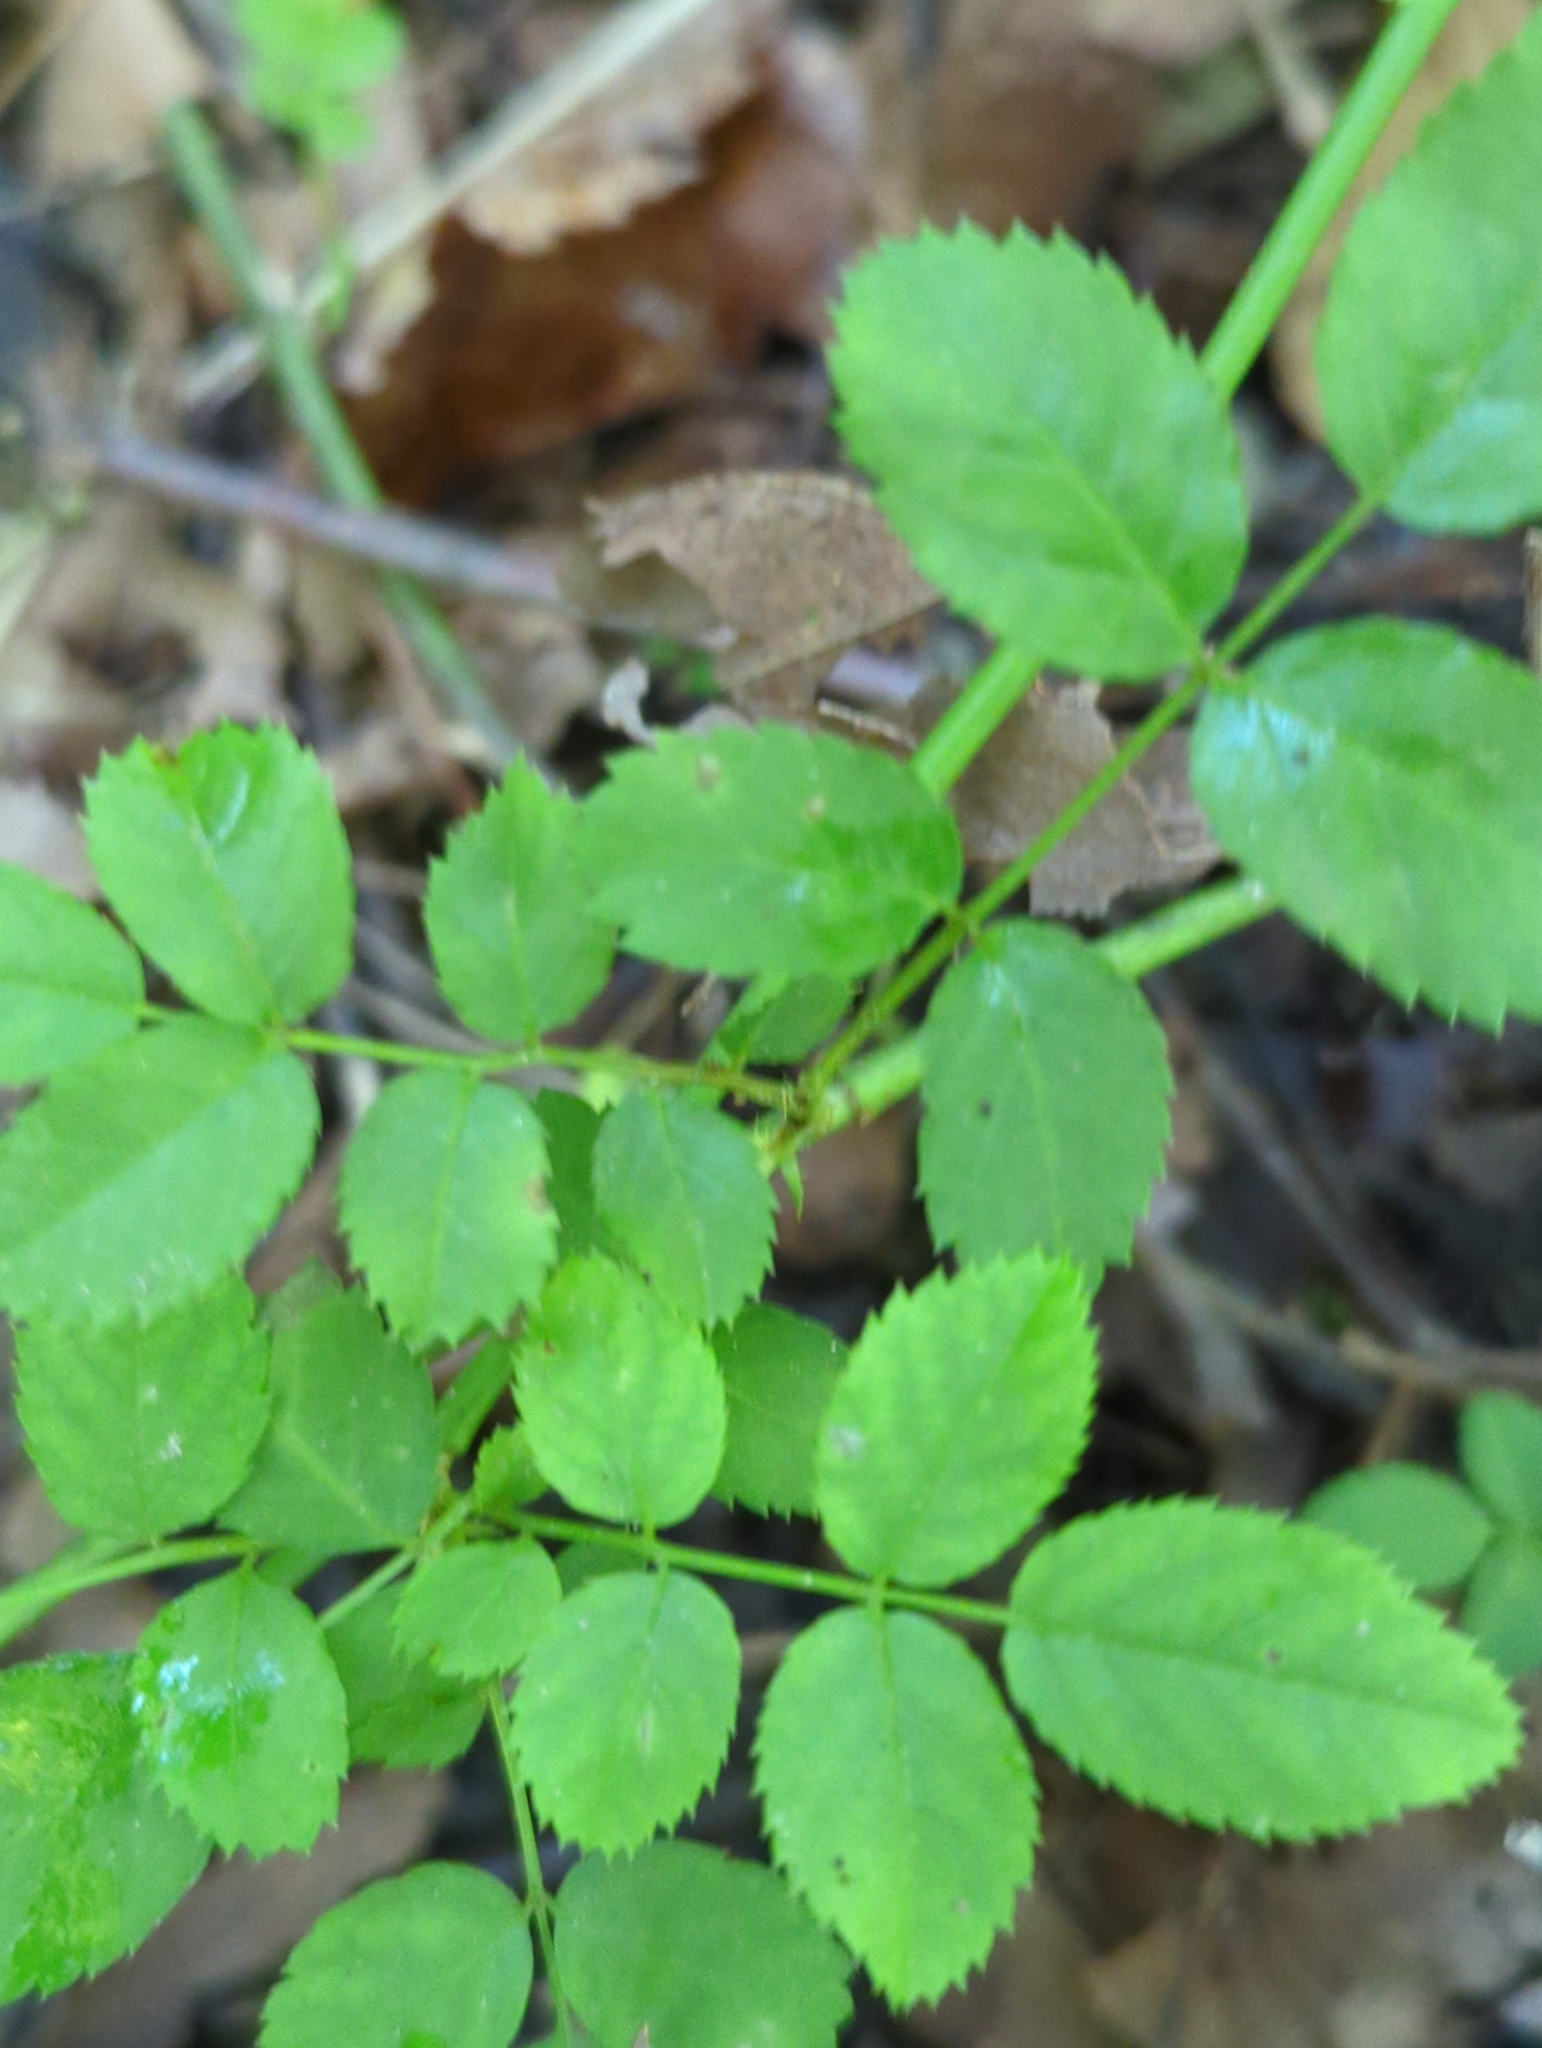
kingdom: Plantae
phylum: Tracheophyta
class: Magnoliopsida
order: Rosales
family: Rosaceae
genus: Rosa
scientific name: Rosa multiflora
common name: Multiflora rose
